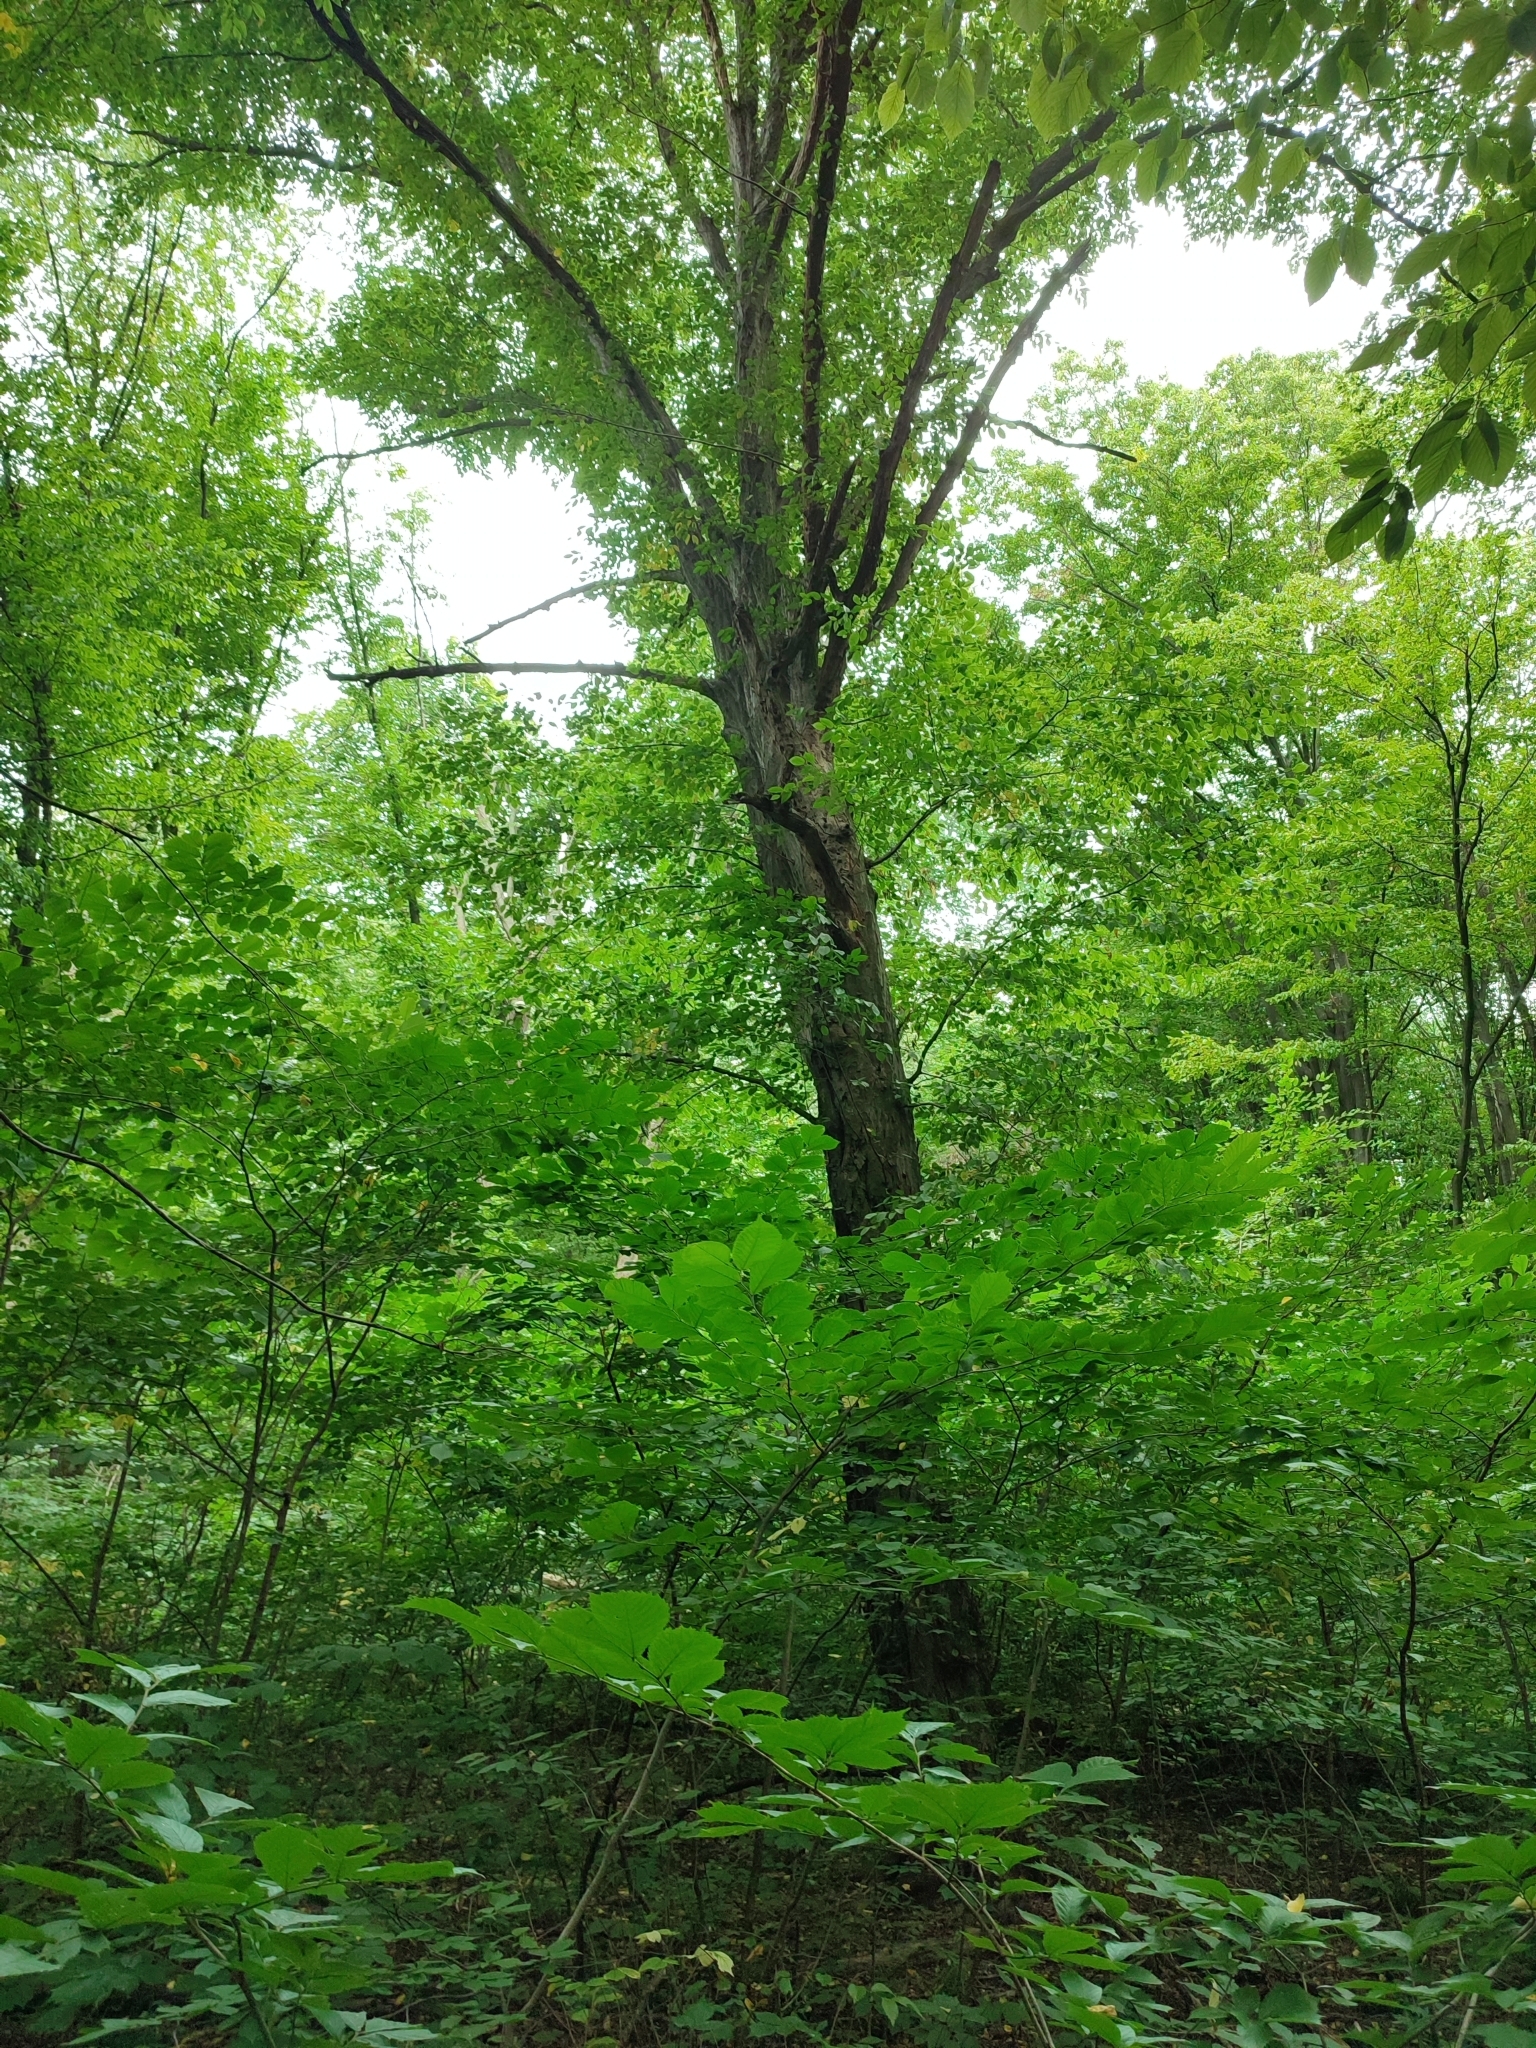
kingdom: Plantae
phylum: Tracheophyta
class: Magnoliopsida
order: Fagales
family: Betulaceae
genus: Carpinus
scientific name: Carpinus betulus
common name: Hornbeam
